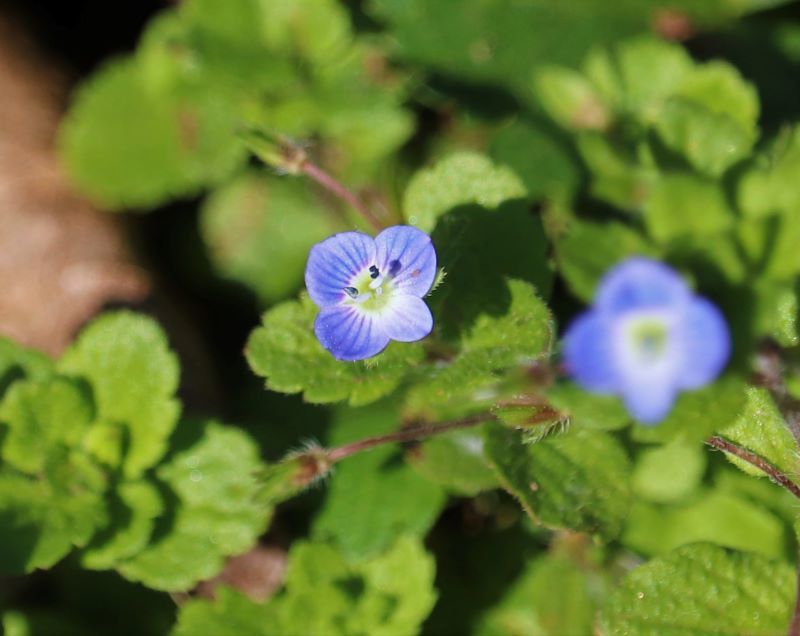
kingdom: Plantae
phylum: Tracheophyta
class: Magnoliopsida
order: Lamiales
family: Plantaginaceae
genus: Veronica
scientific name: Veronica persica
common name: Common field-speedwell
